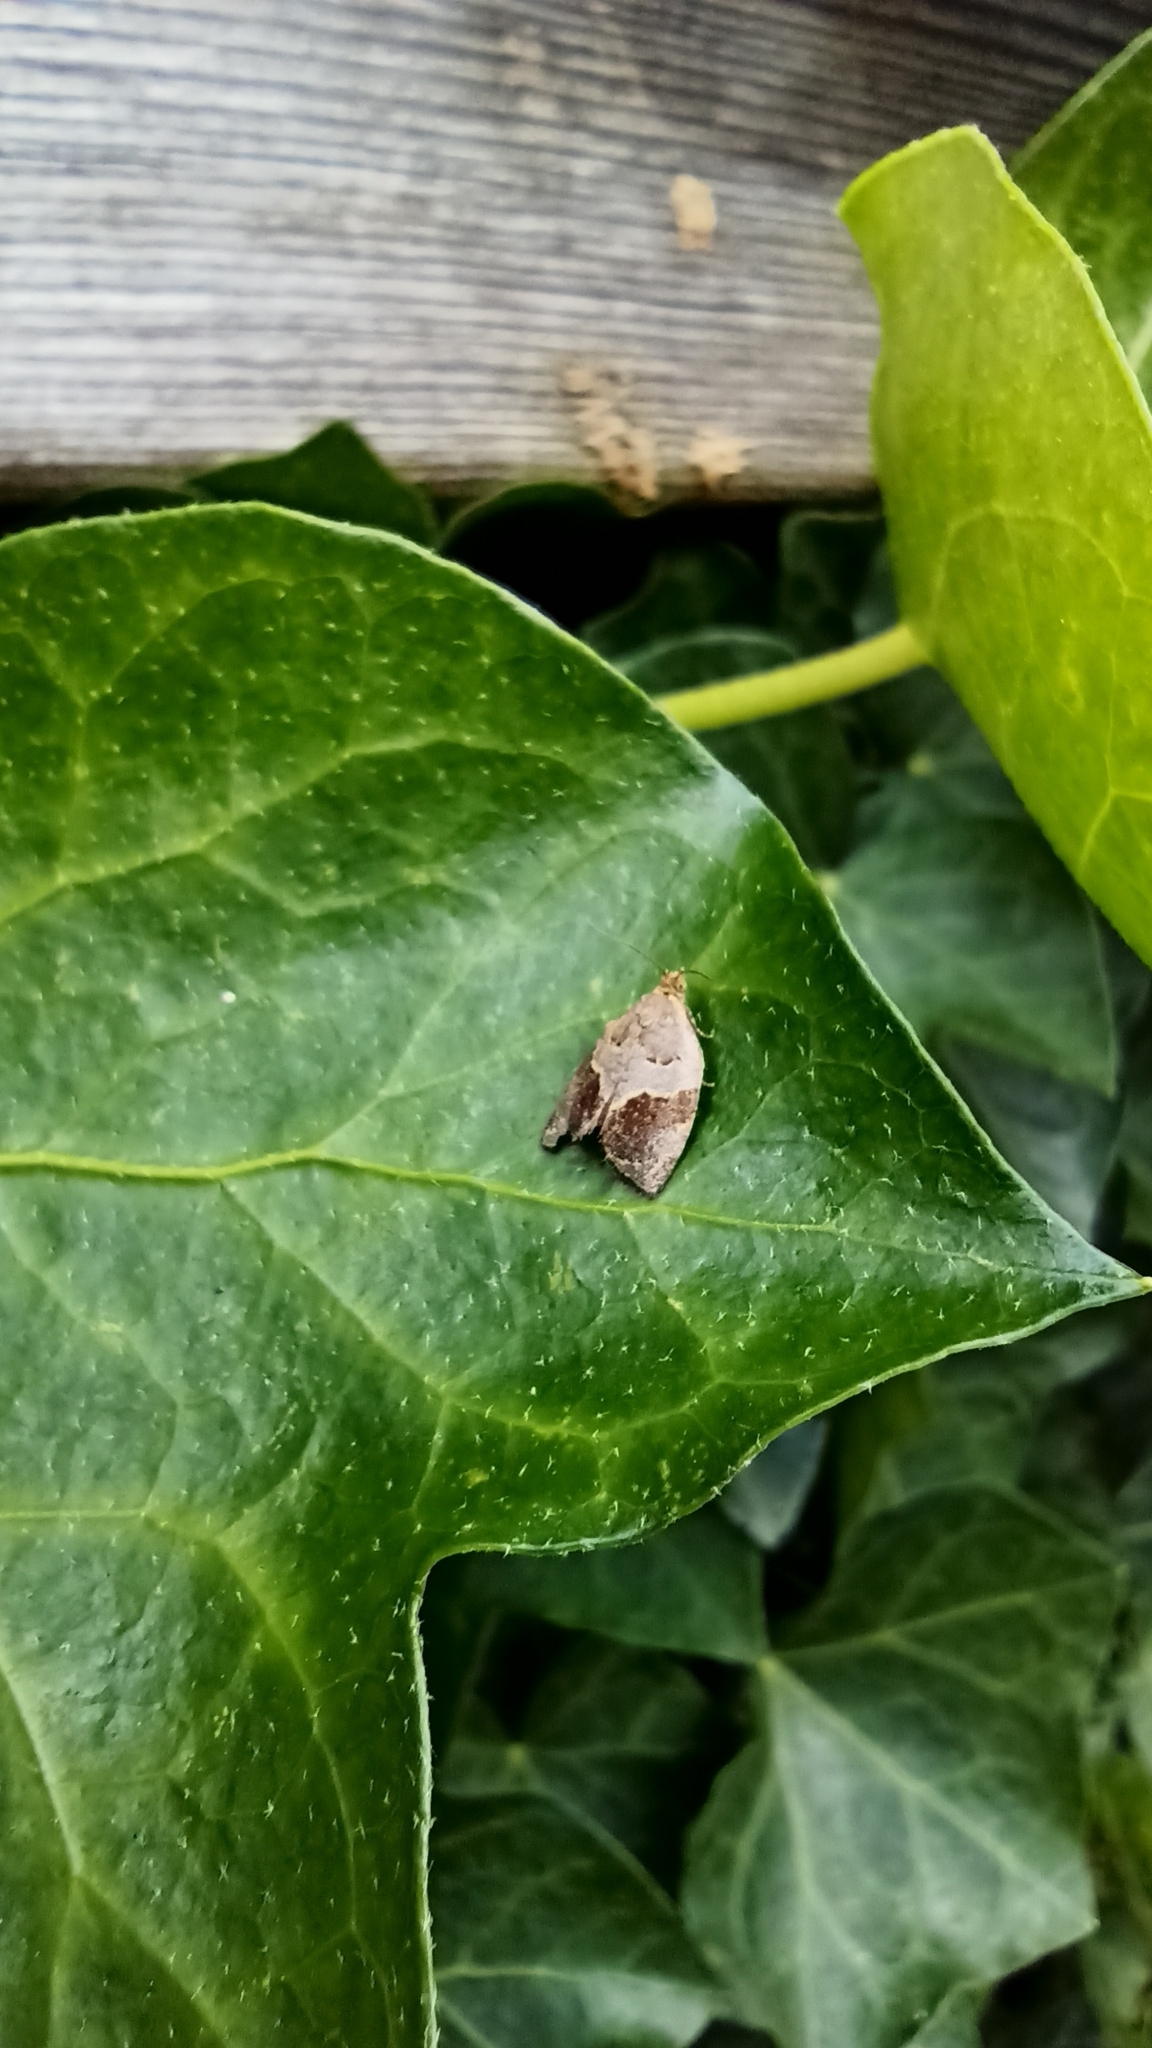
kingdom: Animalia
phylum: Arthropoda
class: Insecta
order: Lepidoptera
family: Tortricidae
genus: Clepsis
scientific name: Clepsis dumicolana
